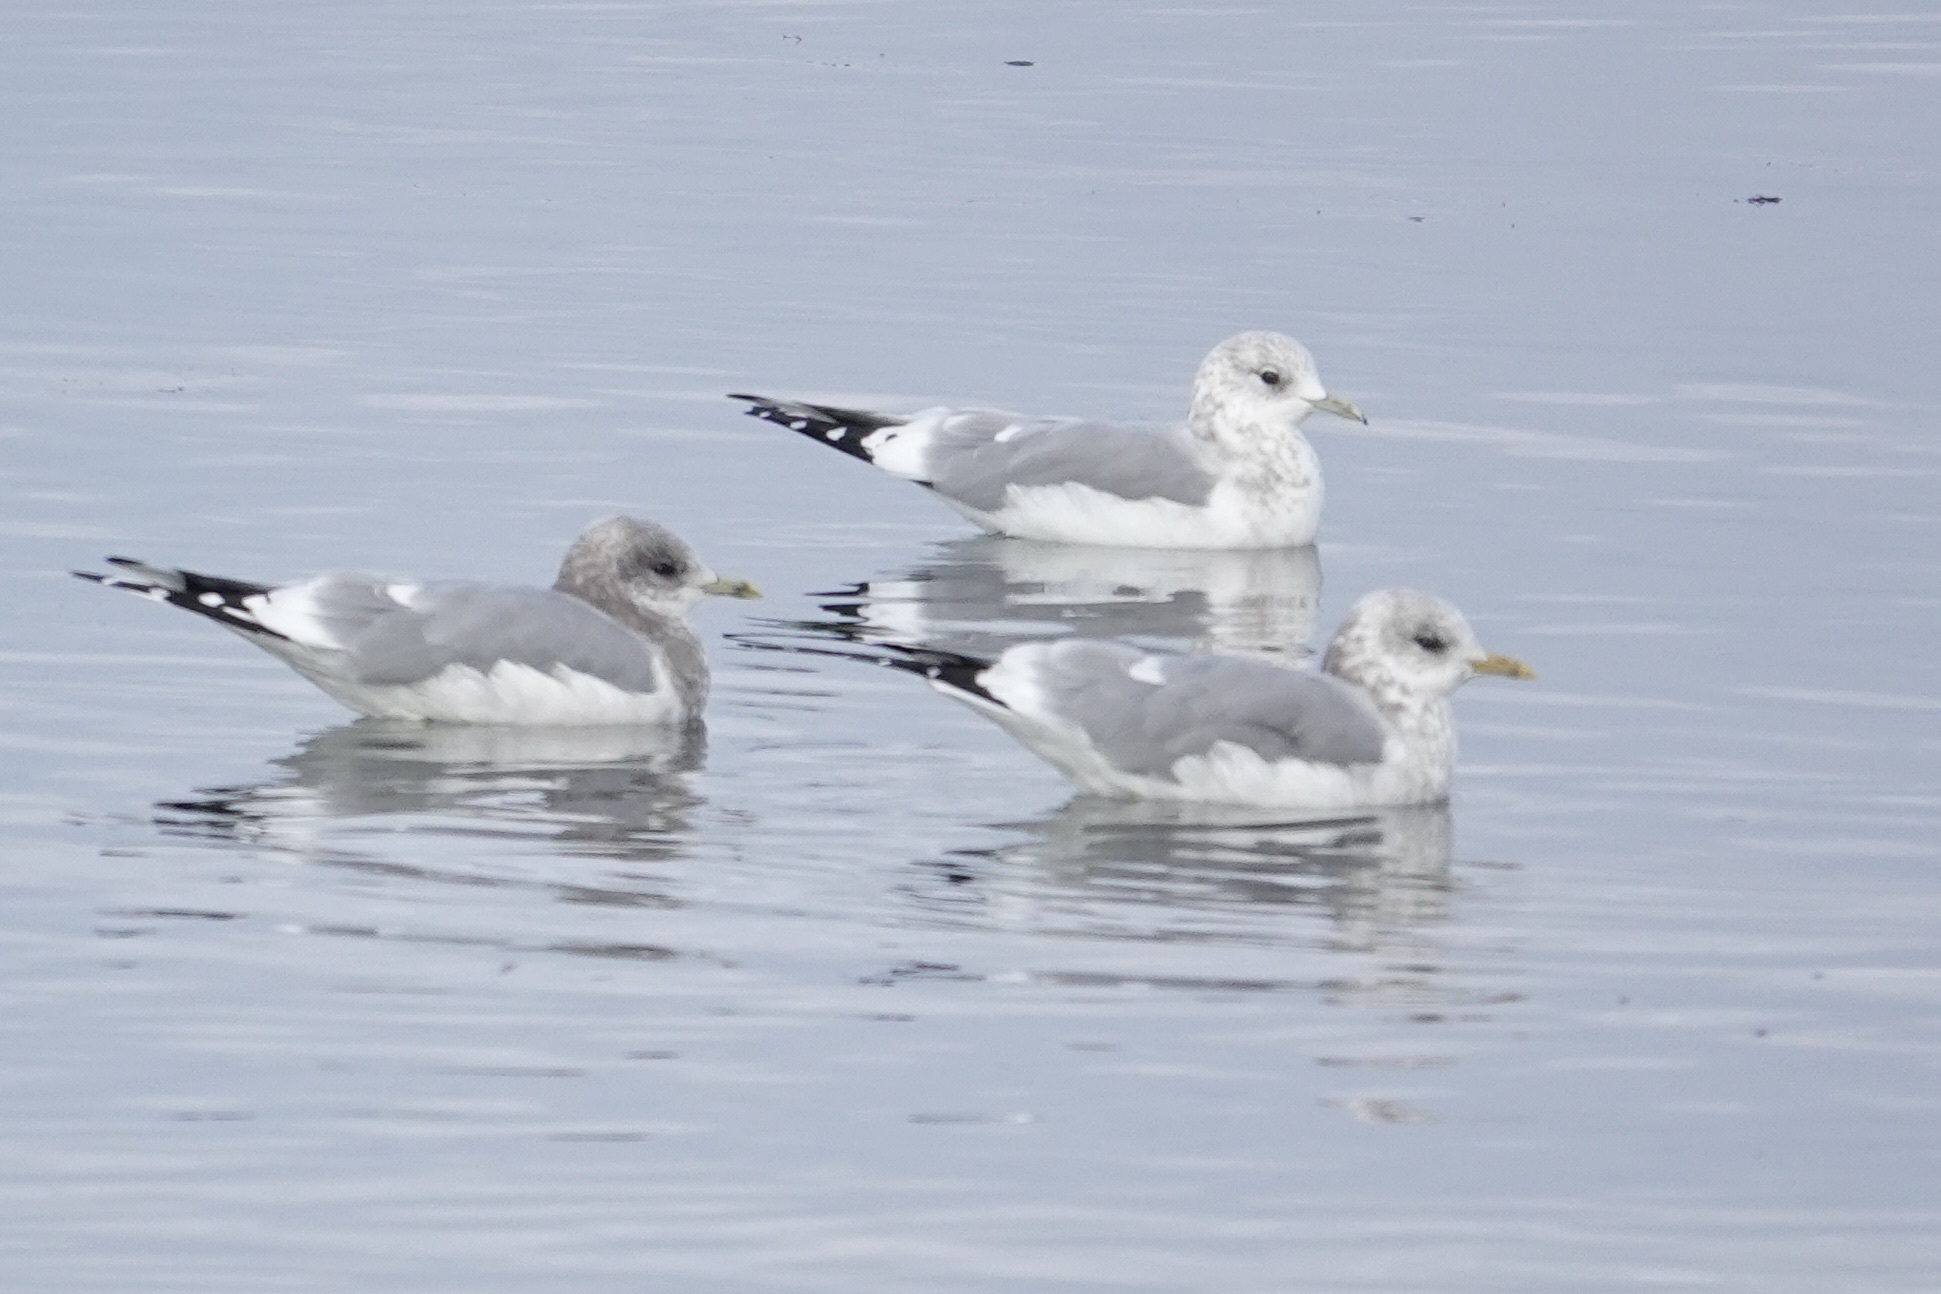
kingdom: Animalia
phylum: Chordata
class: Aves
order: Charadriiformes
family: Laridae
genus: Larus
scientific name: Larus brachyrhynchus
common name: Short-billed gull
